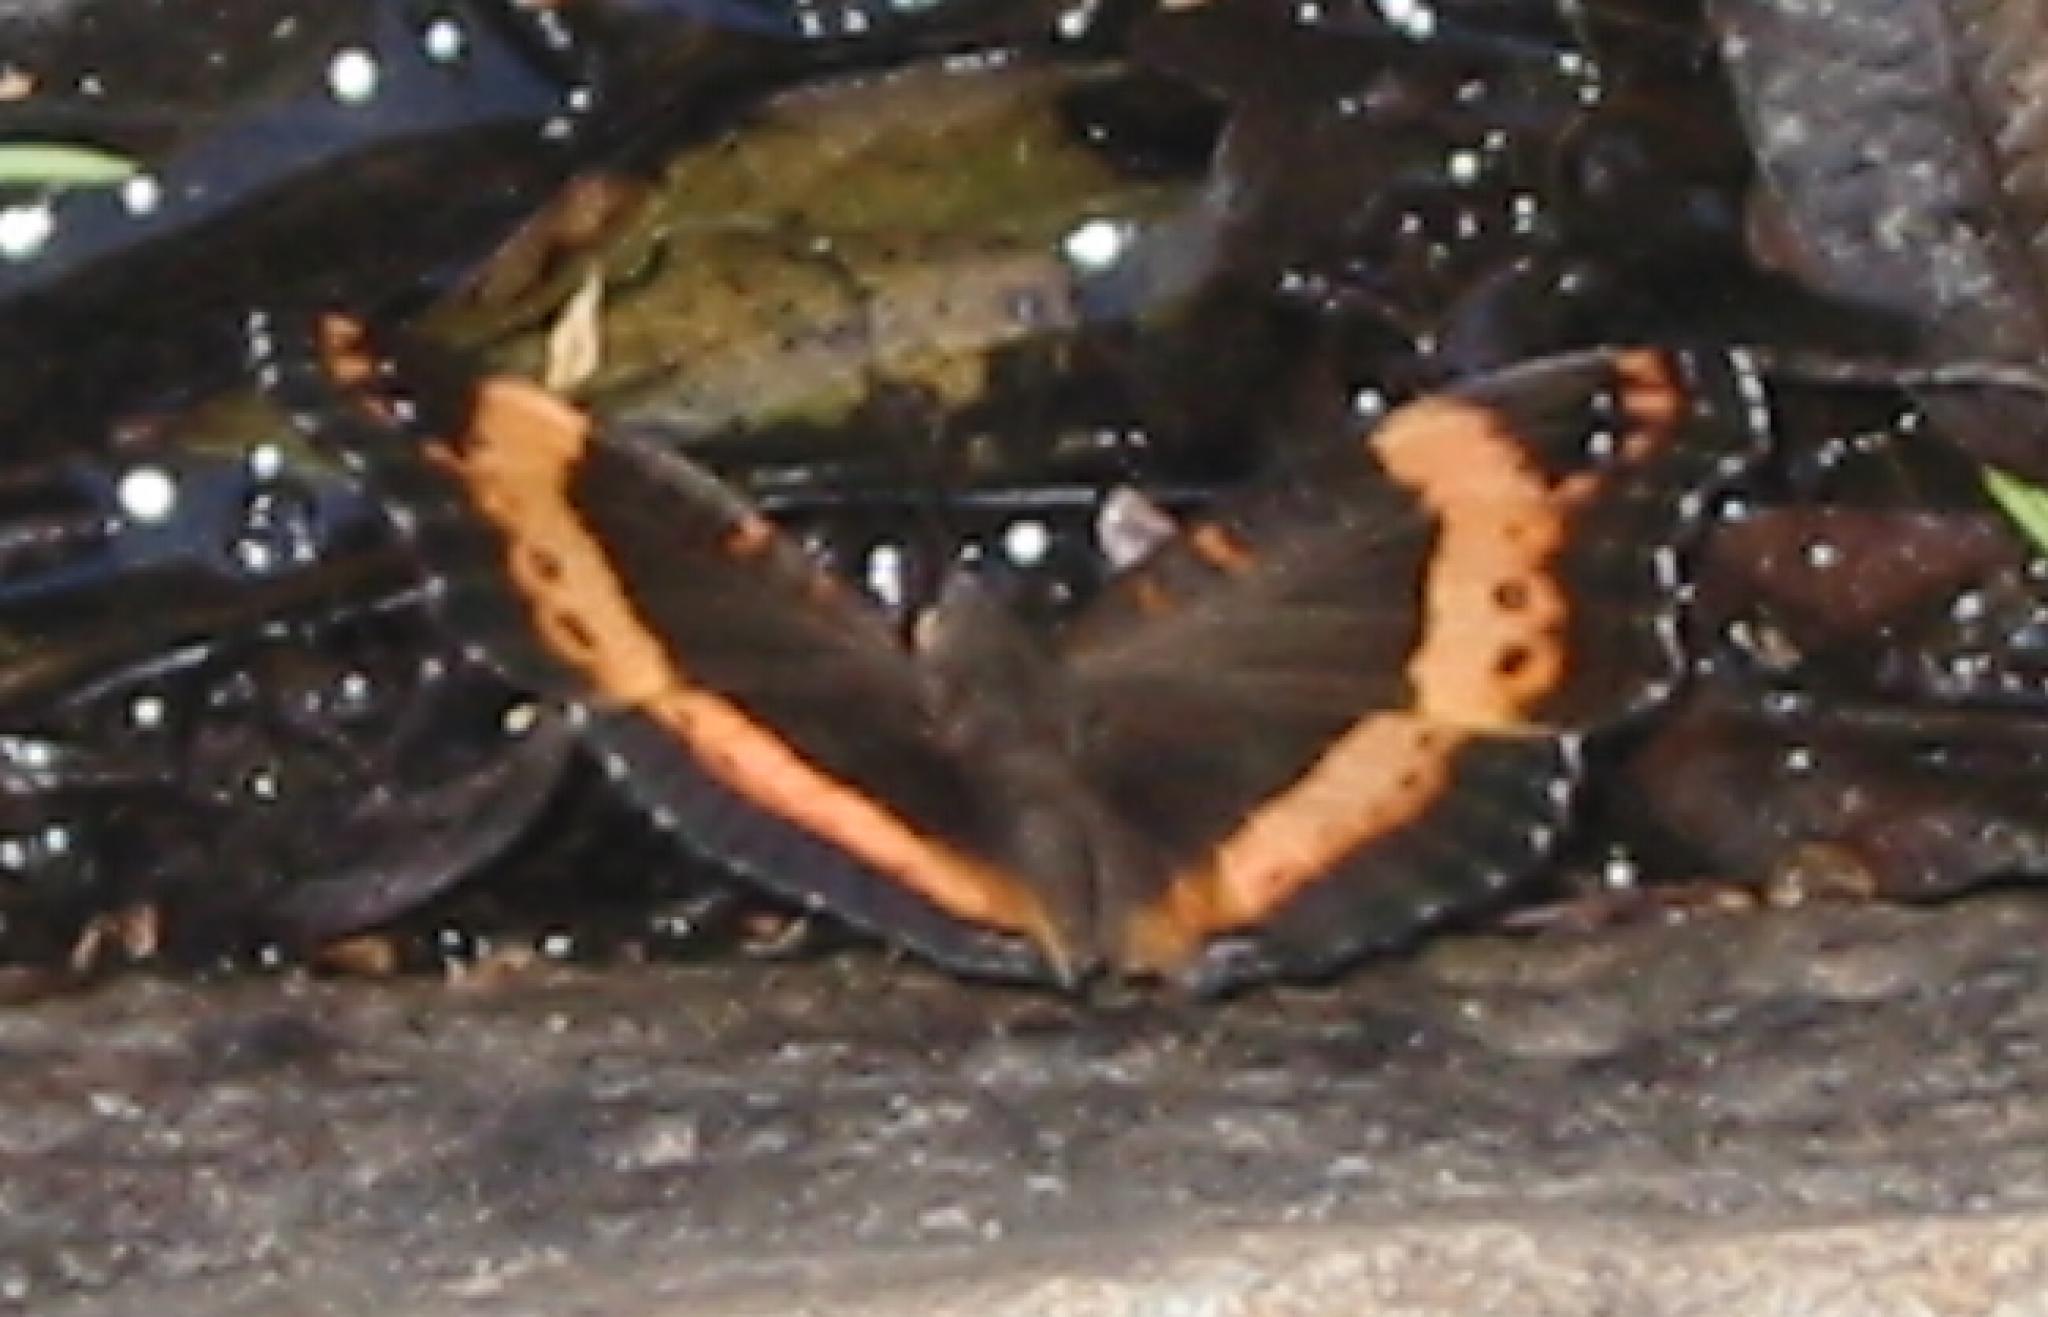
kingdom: Animalia
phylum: Arthropoda
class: Insecta
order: Lepidoptera
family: Nymphalidae
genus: Junonia
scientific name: Junonia archesia
